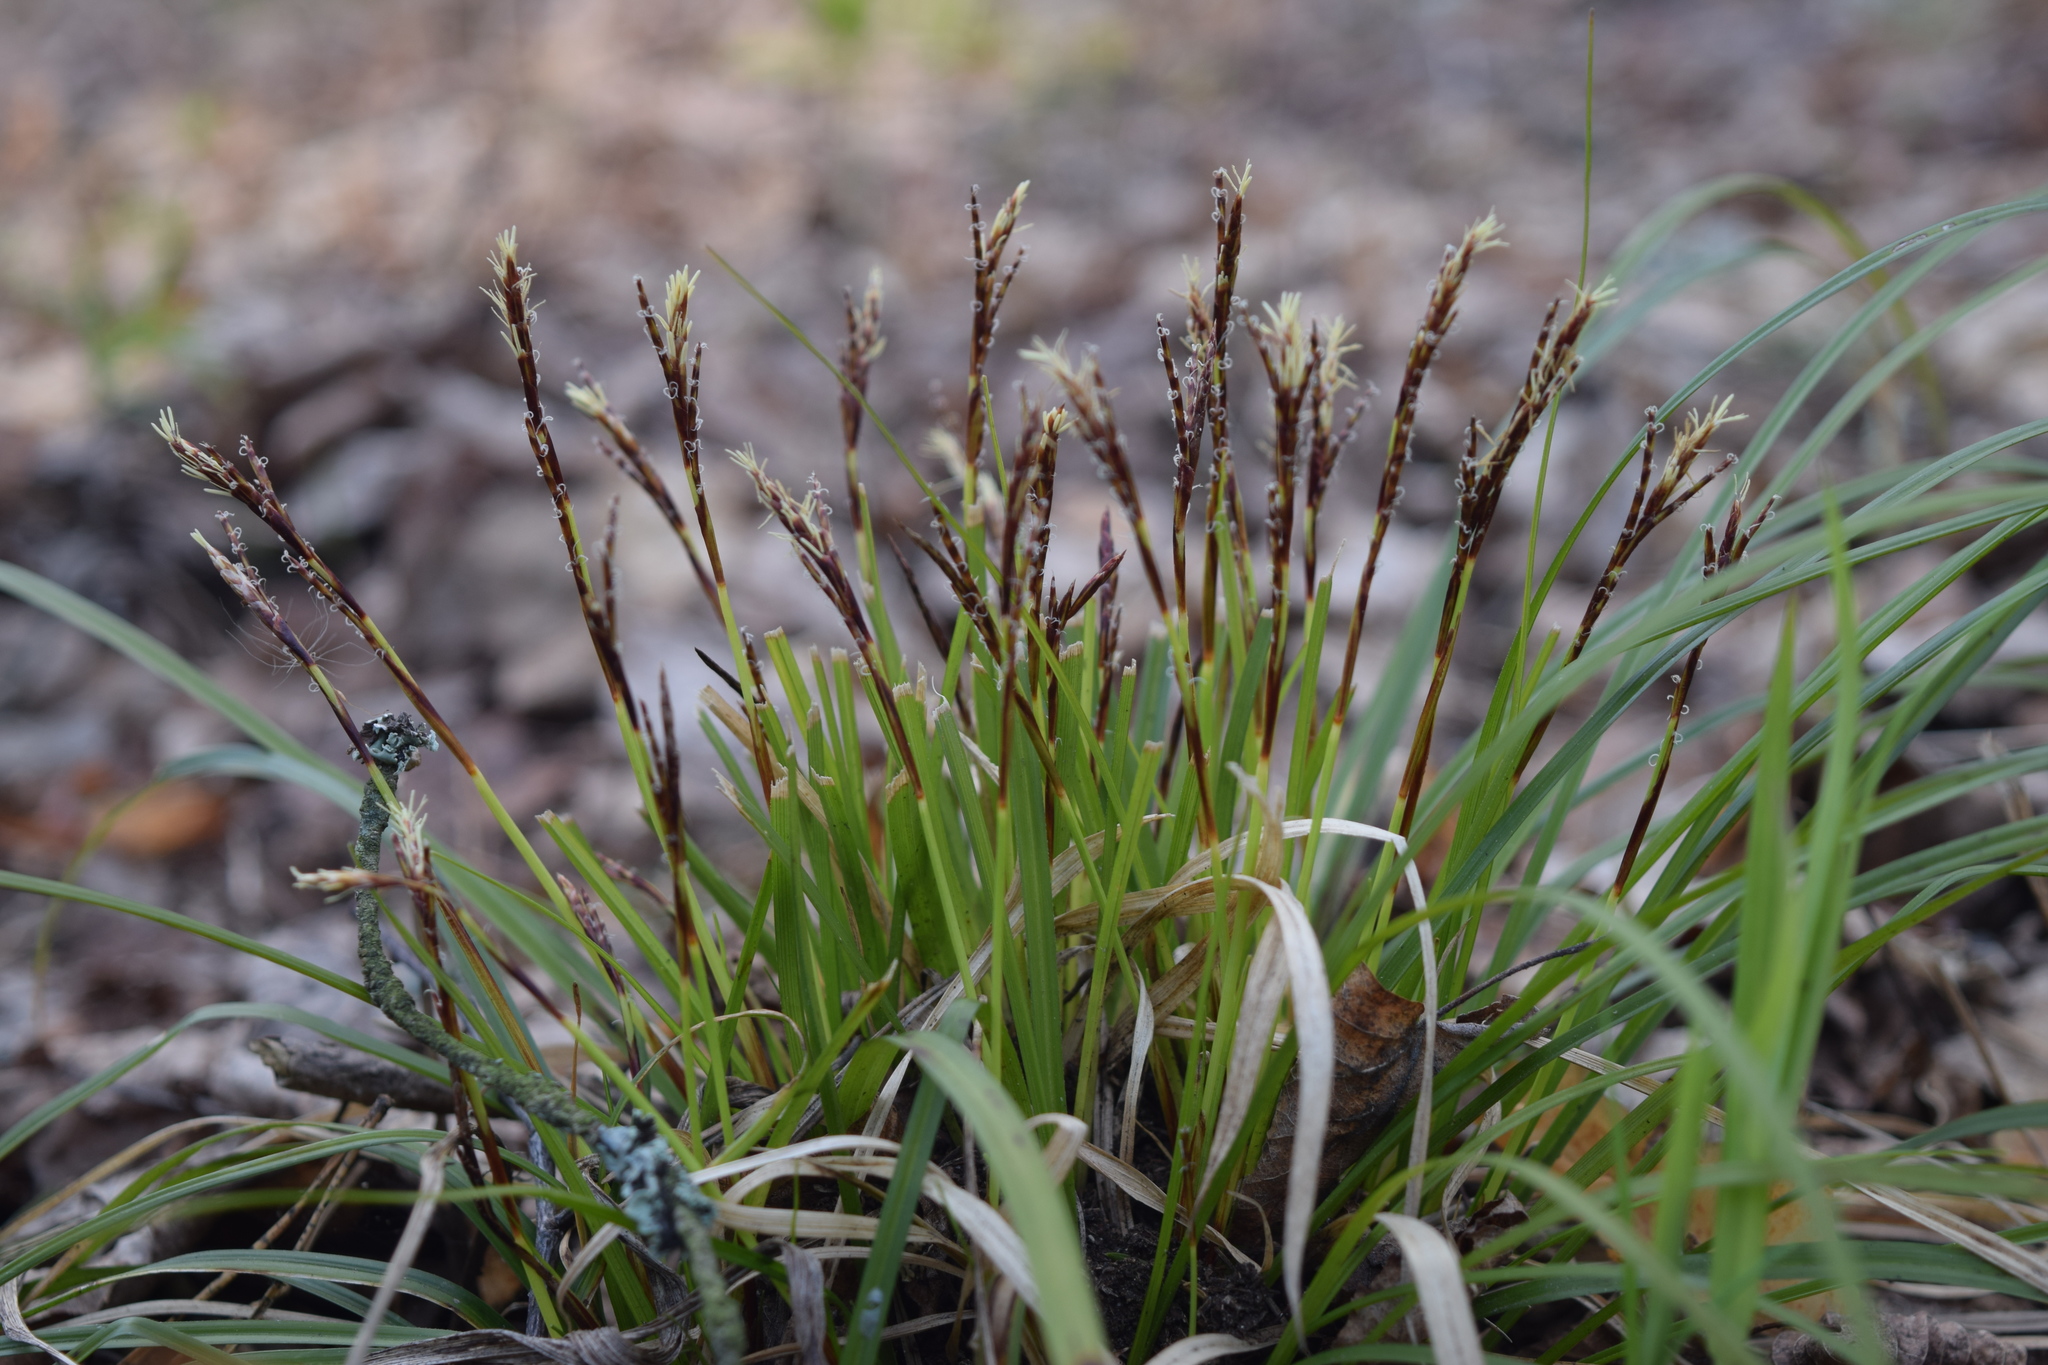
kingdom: Plantae
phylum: Tracheophyta
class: Liliopsida
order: Poales
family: Cyperaceae
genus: Carex
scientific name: Carex digitata
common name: Fingered sedge
